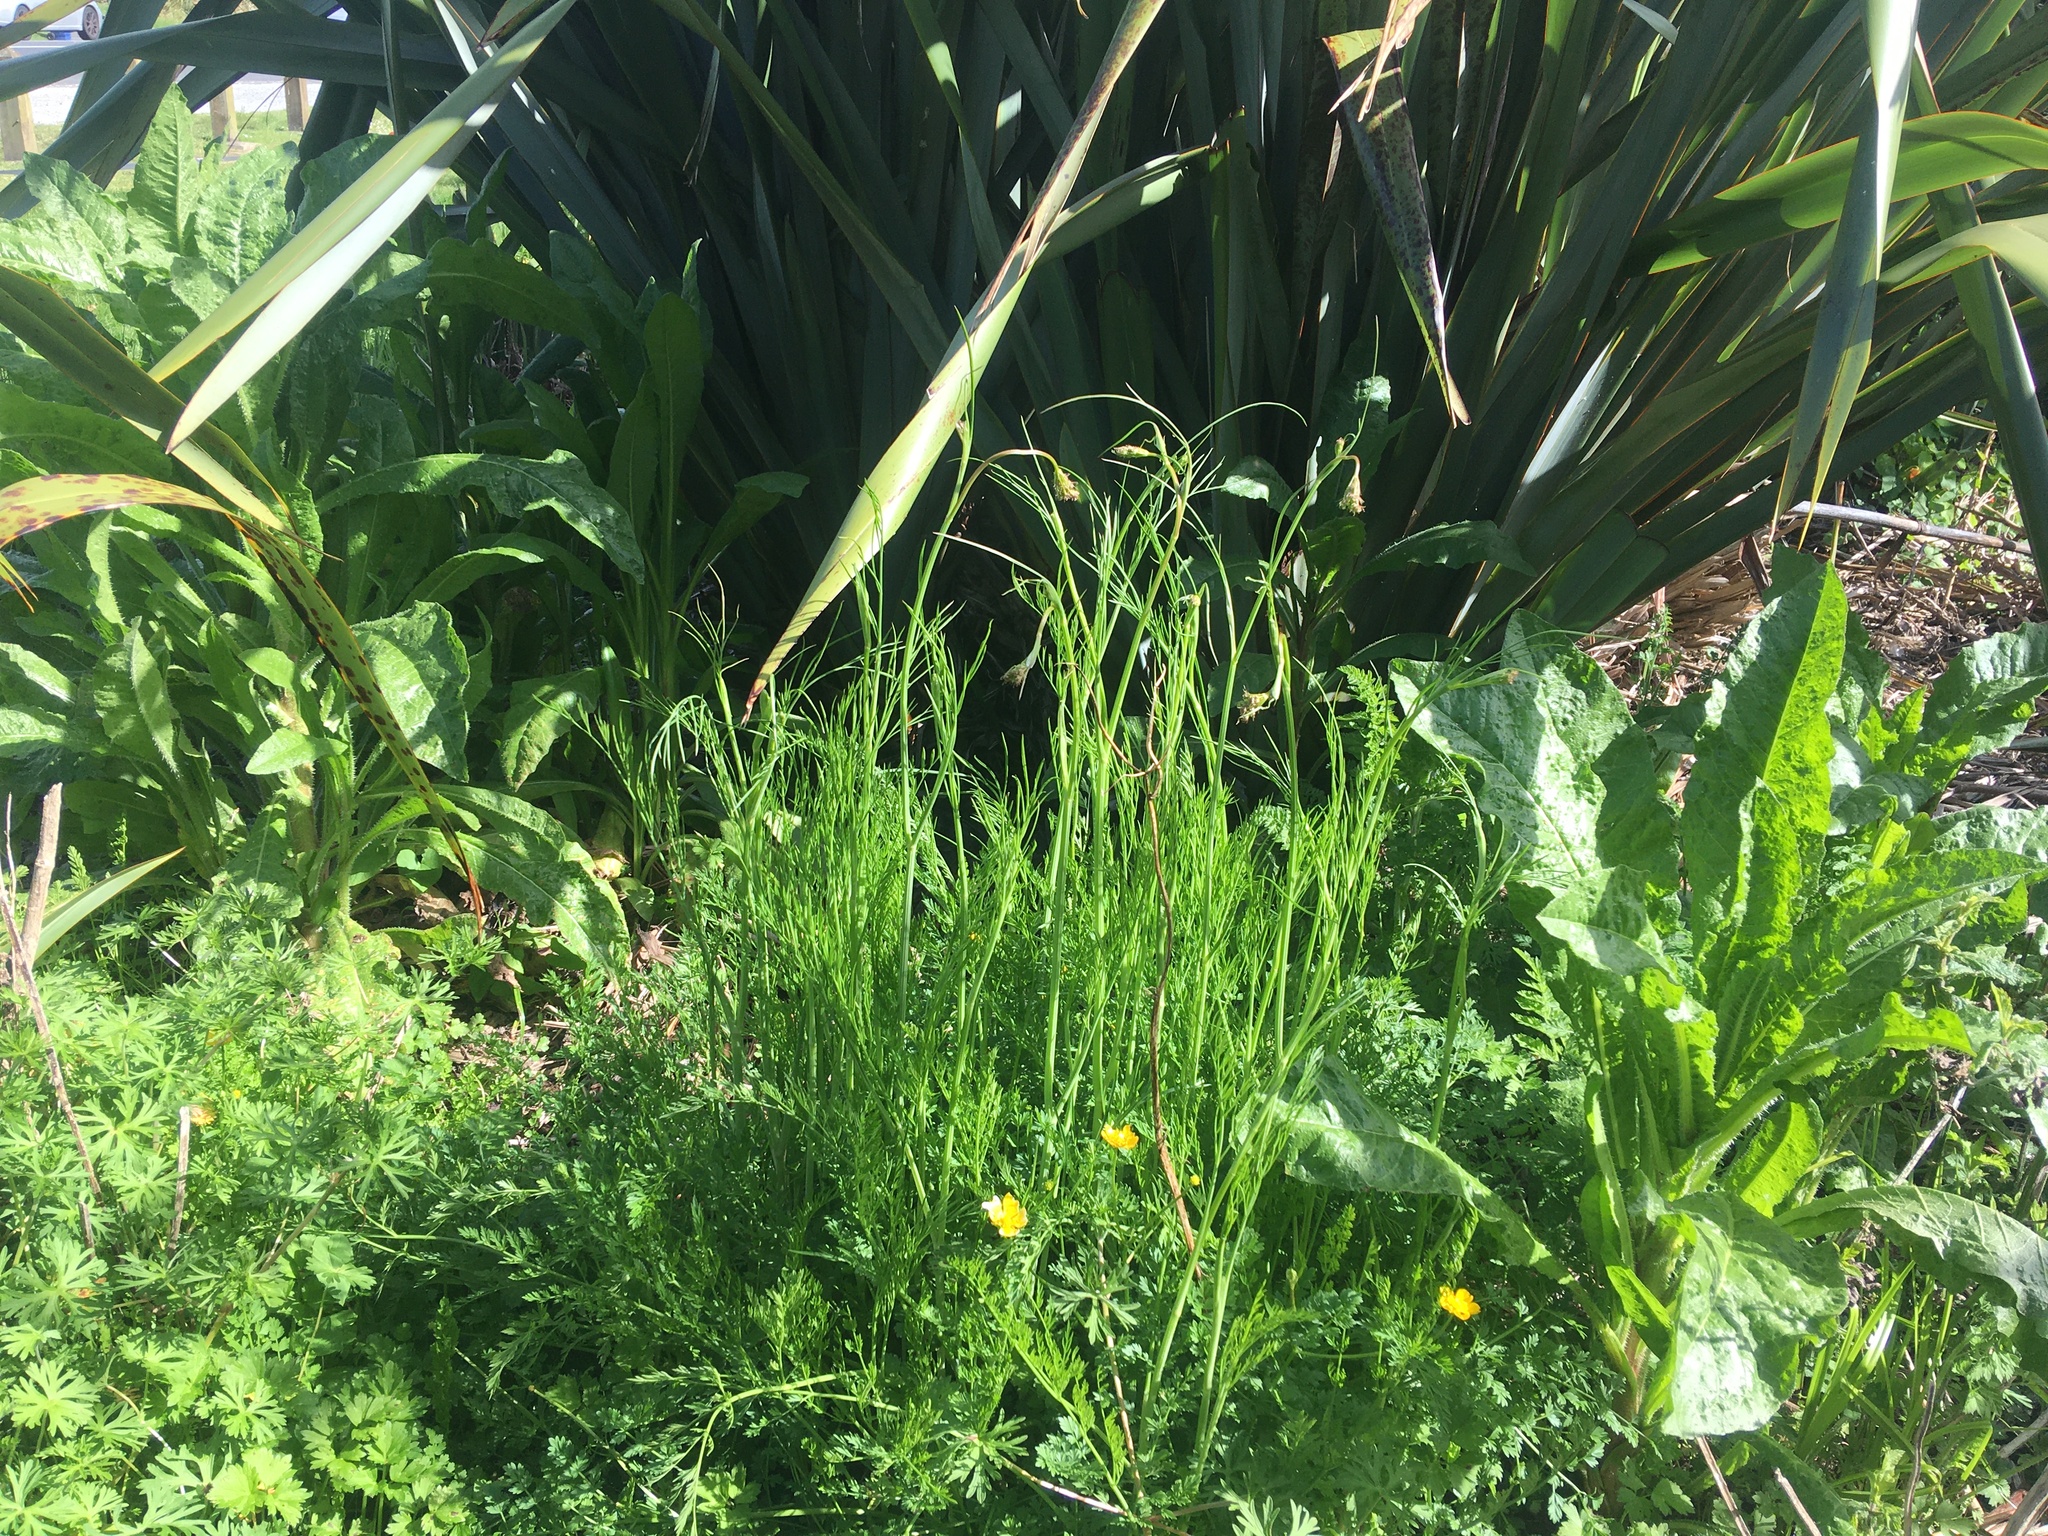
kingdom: Plantae
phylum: Tracheophyta
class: Magnoliopsida
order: Asterales
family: Asteraceae
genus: Helminthotheca
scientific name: Helminthotheca echioides
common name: Ox-tongue
